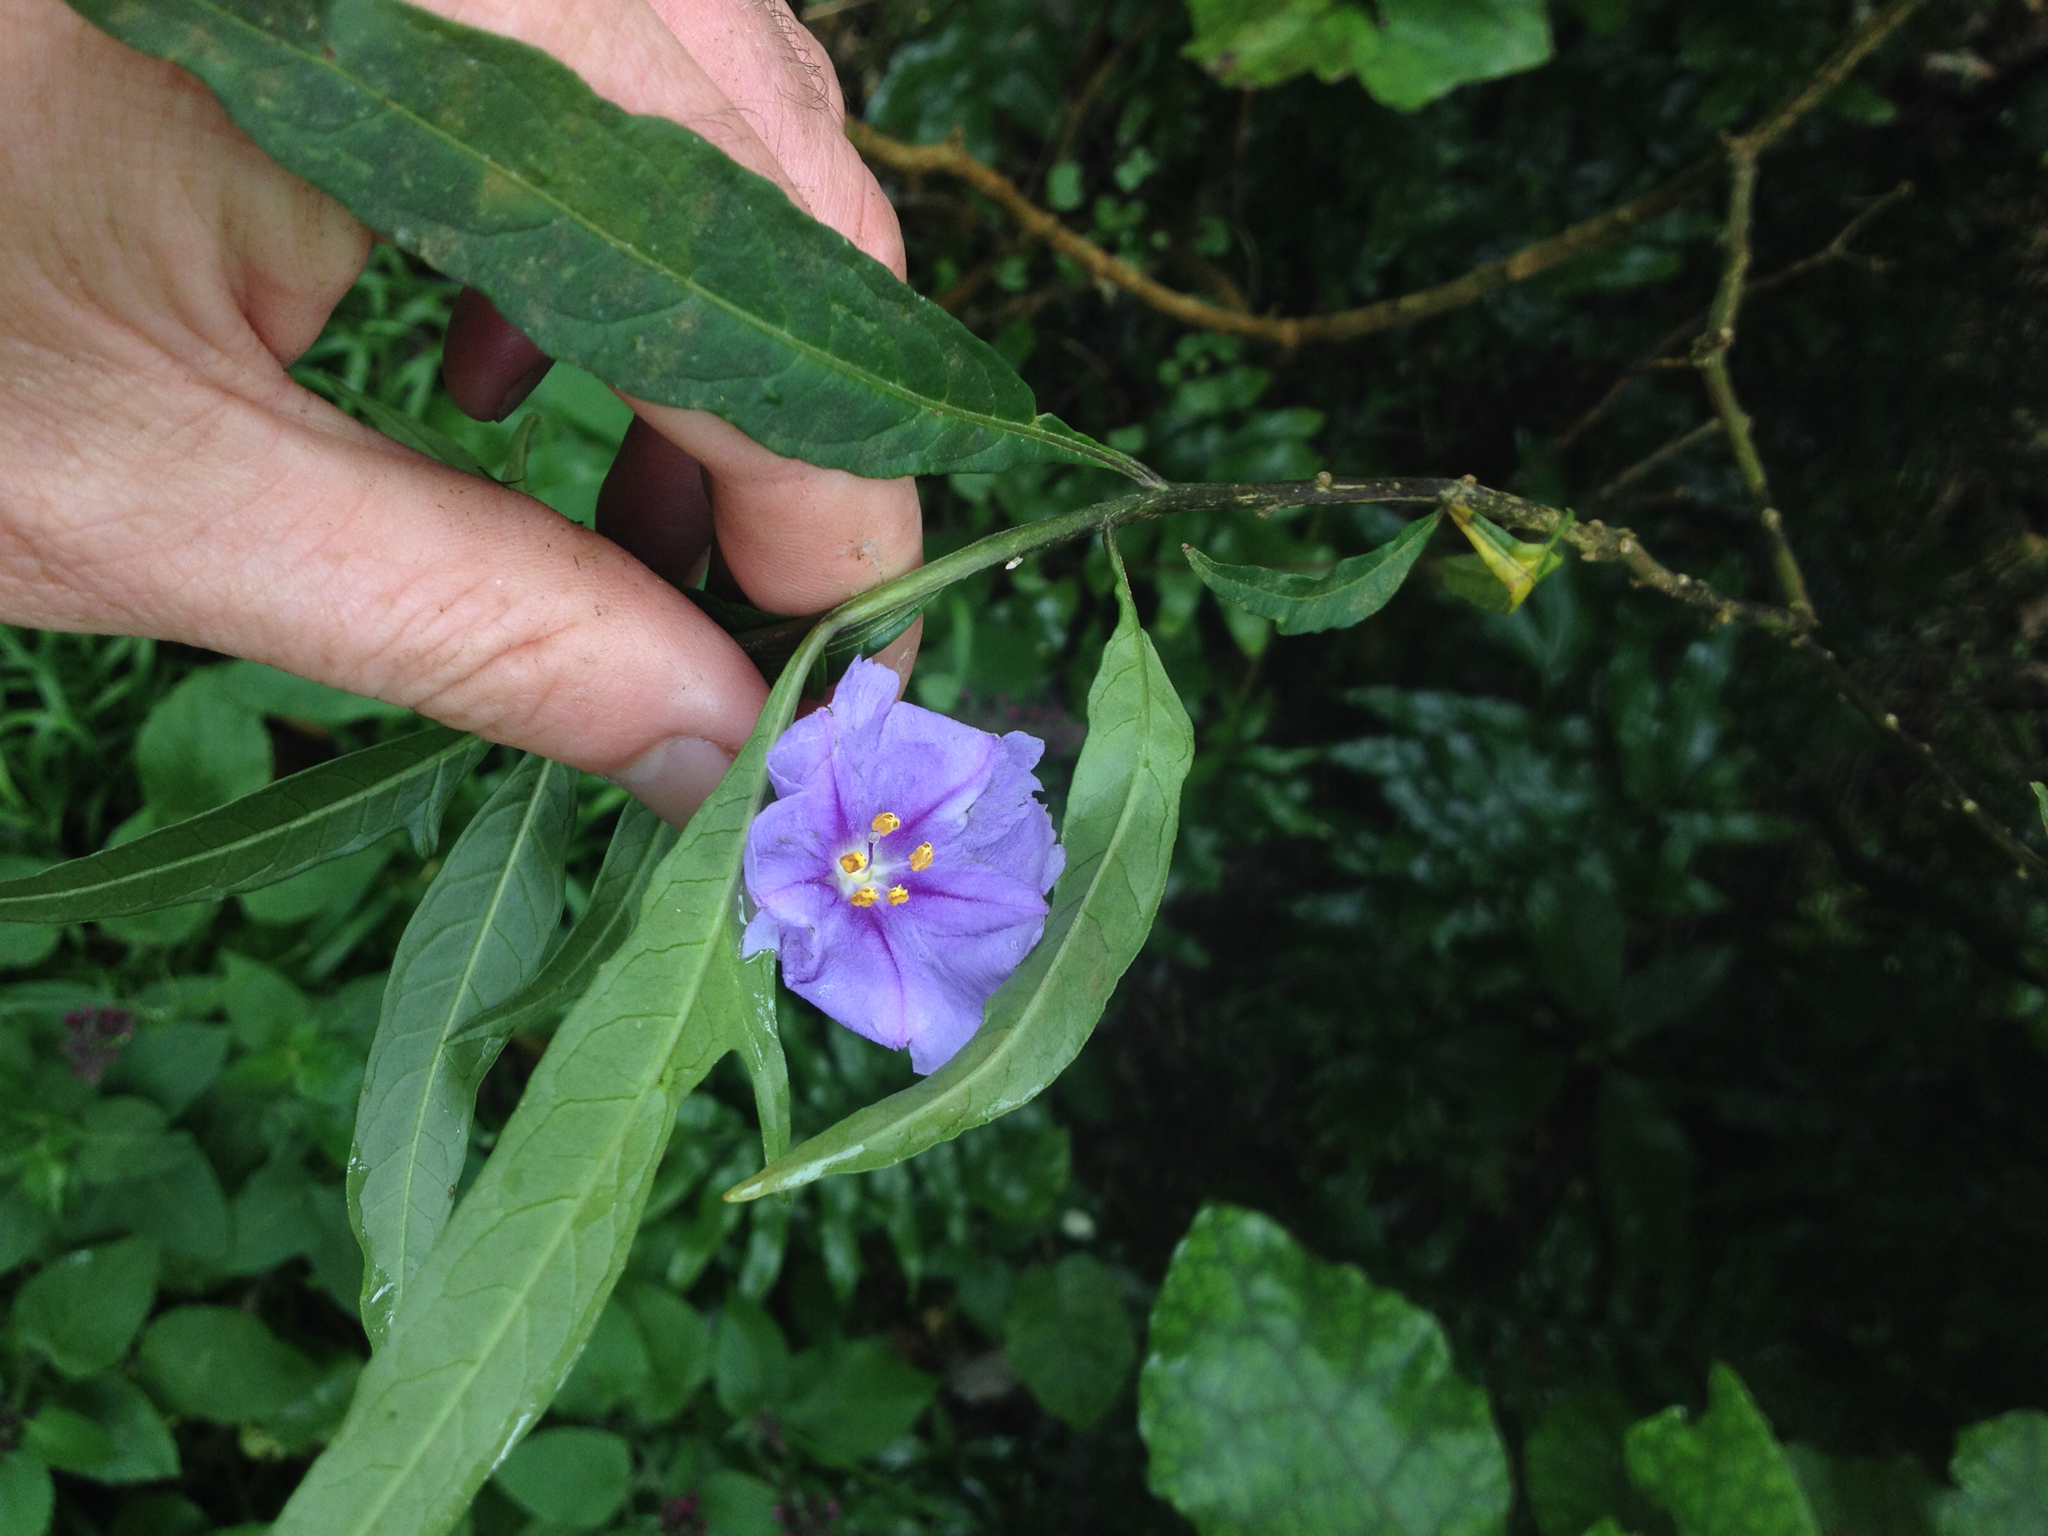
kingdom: Plantae
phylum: Tracheophyta
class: Magnoliopsida
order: Solanales
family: Solanaceae
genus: Solanum
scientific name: Solanum laciniatum
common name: Kangaroo-apple
